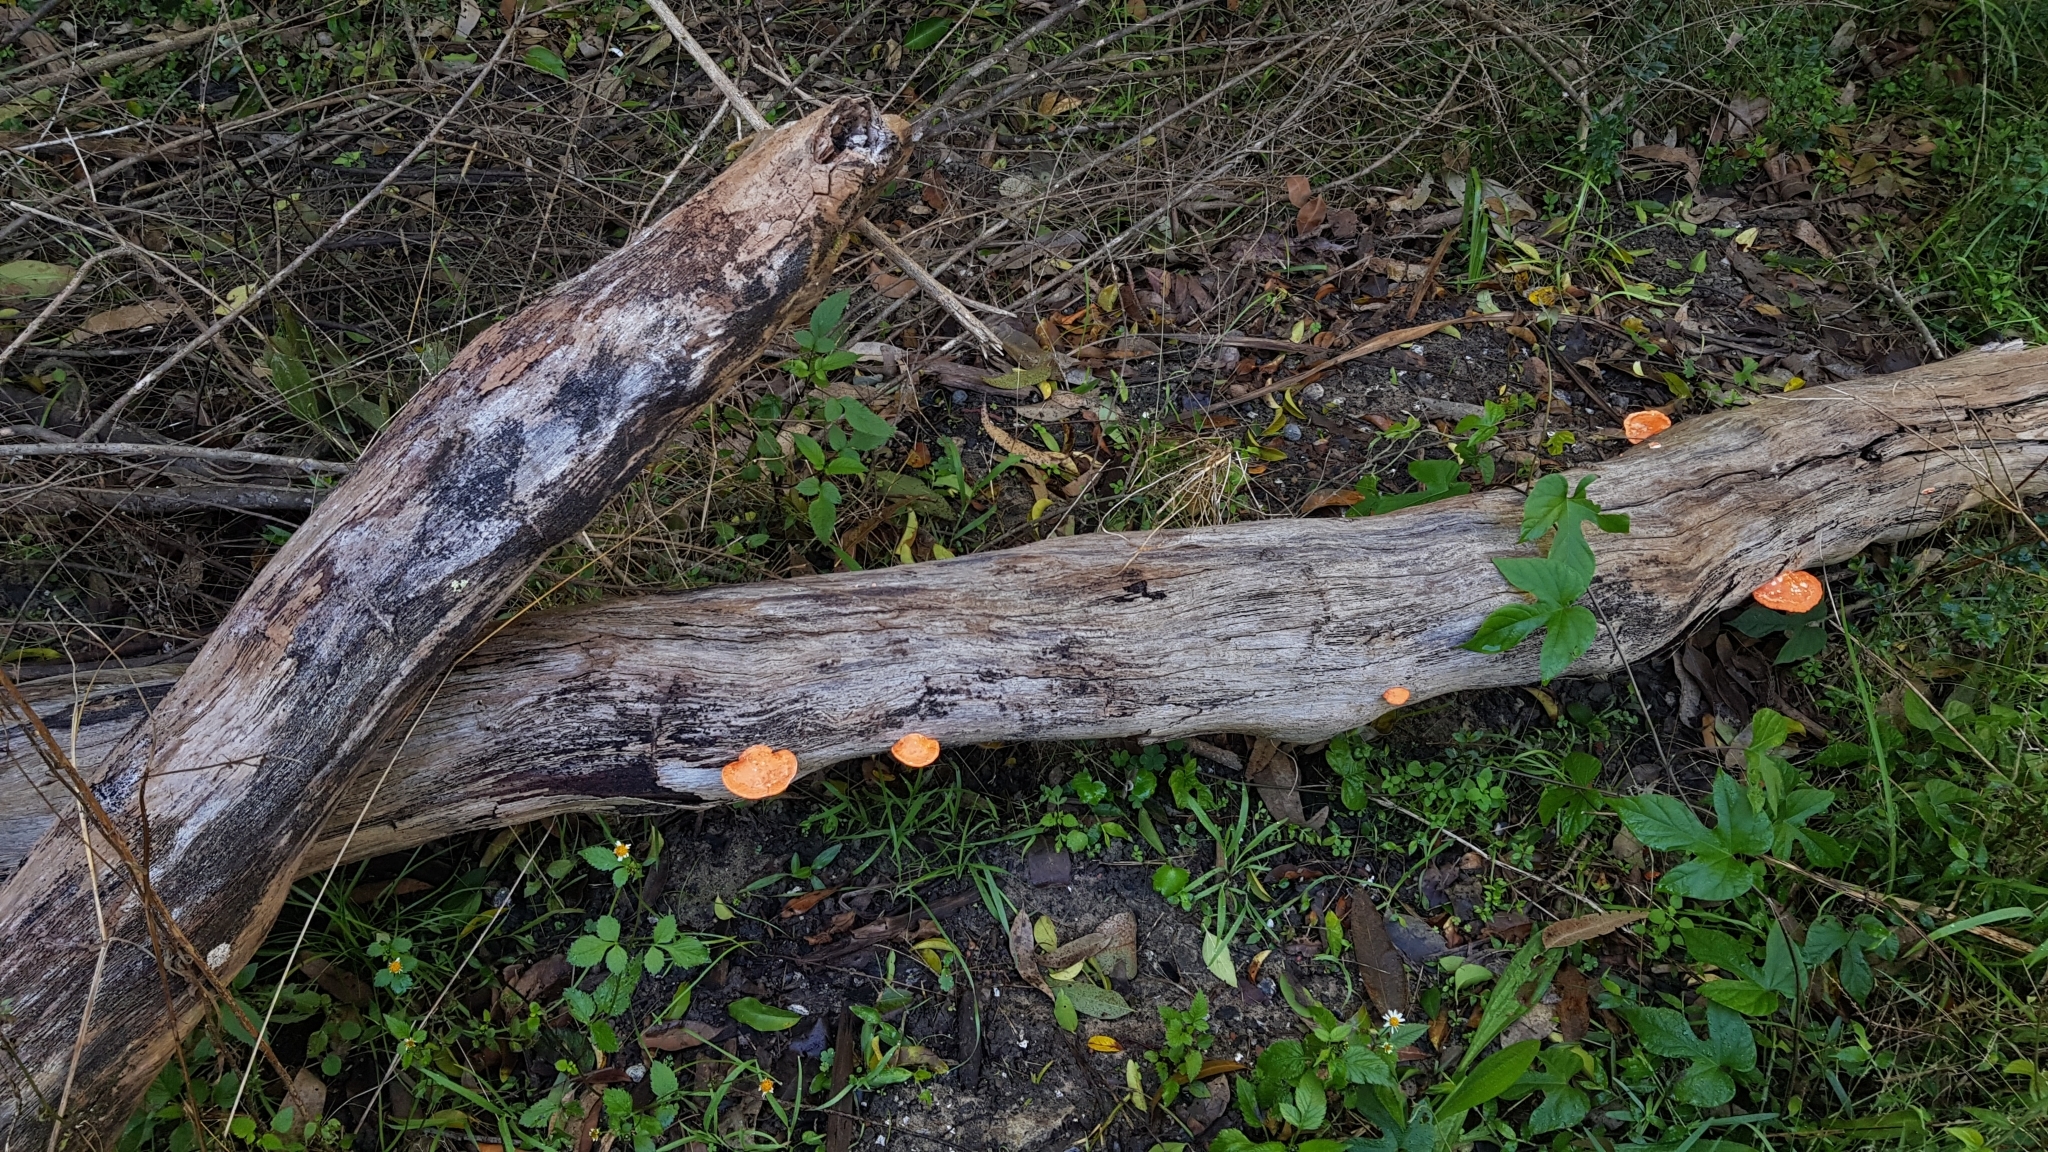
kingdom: Fungi
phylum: Basidiomycota
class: Agaricomycetes
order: Polyporales
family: Polyporaceae
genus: Trametes
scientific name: Trametes coccinea
